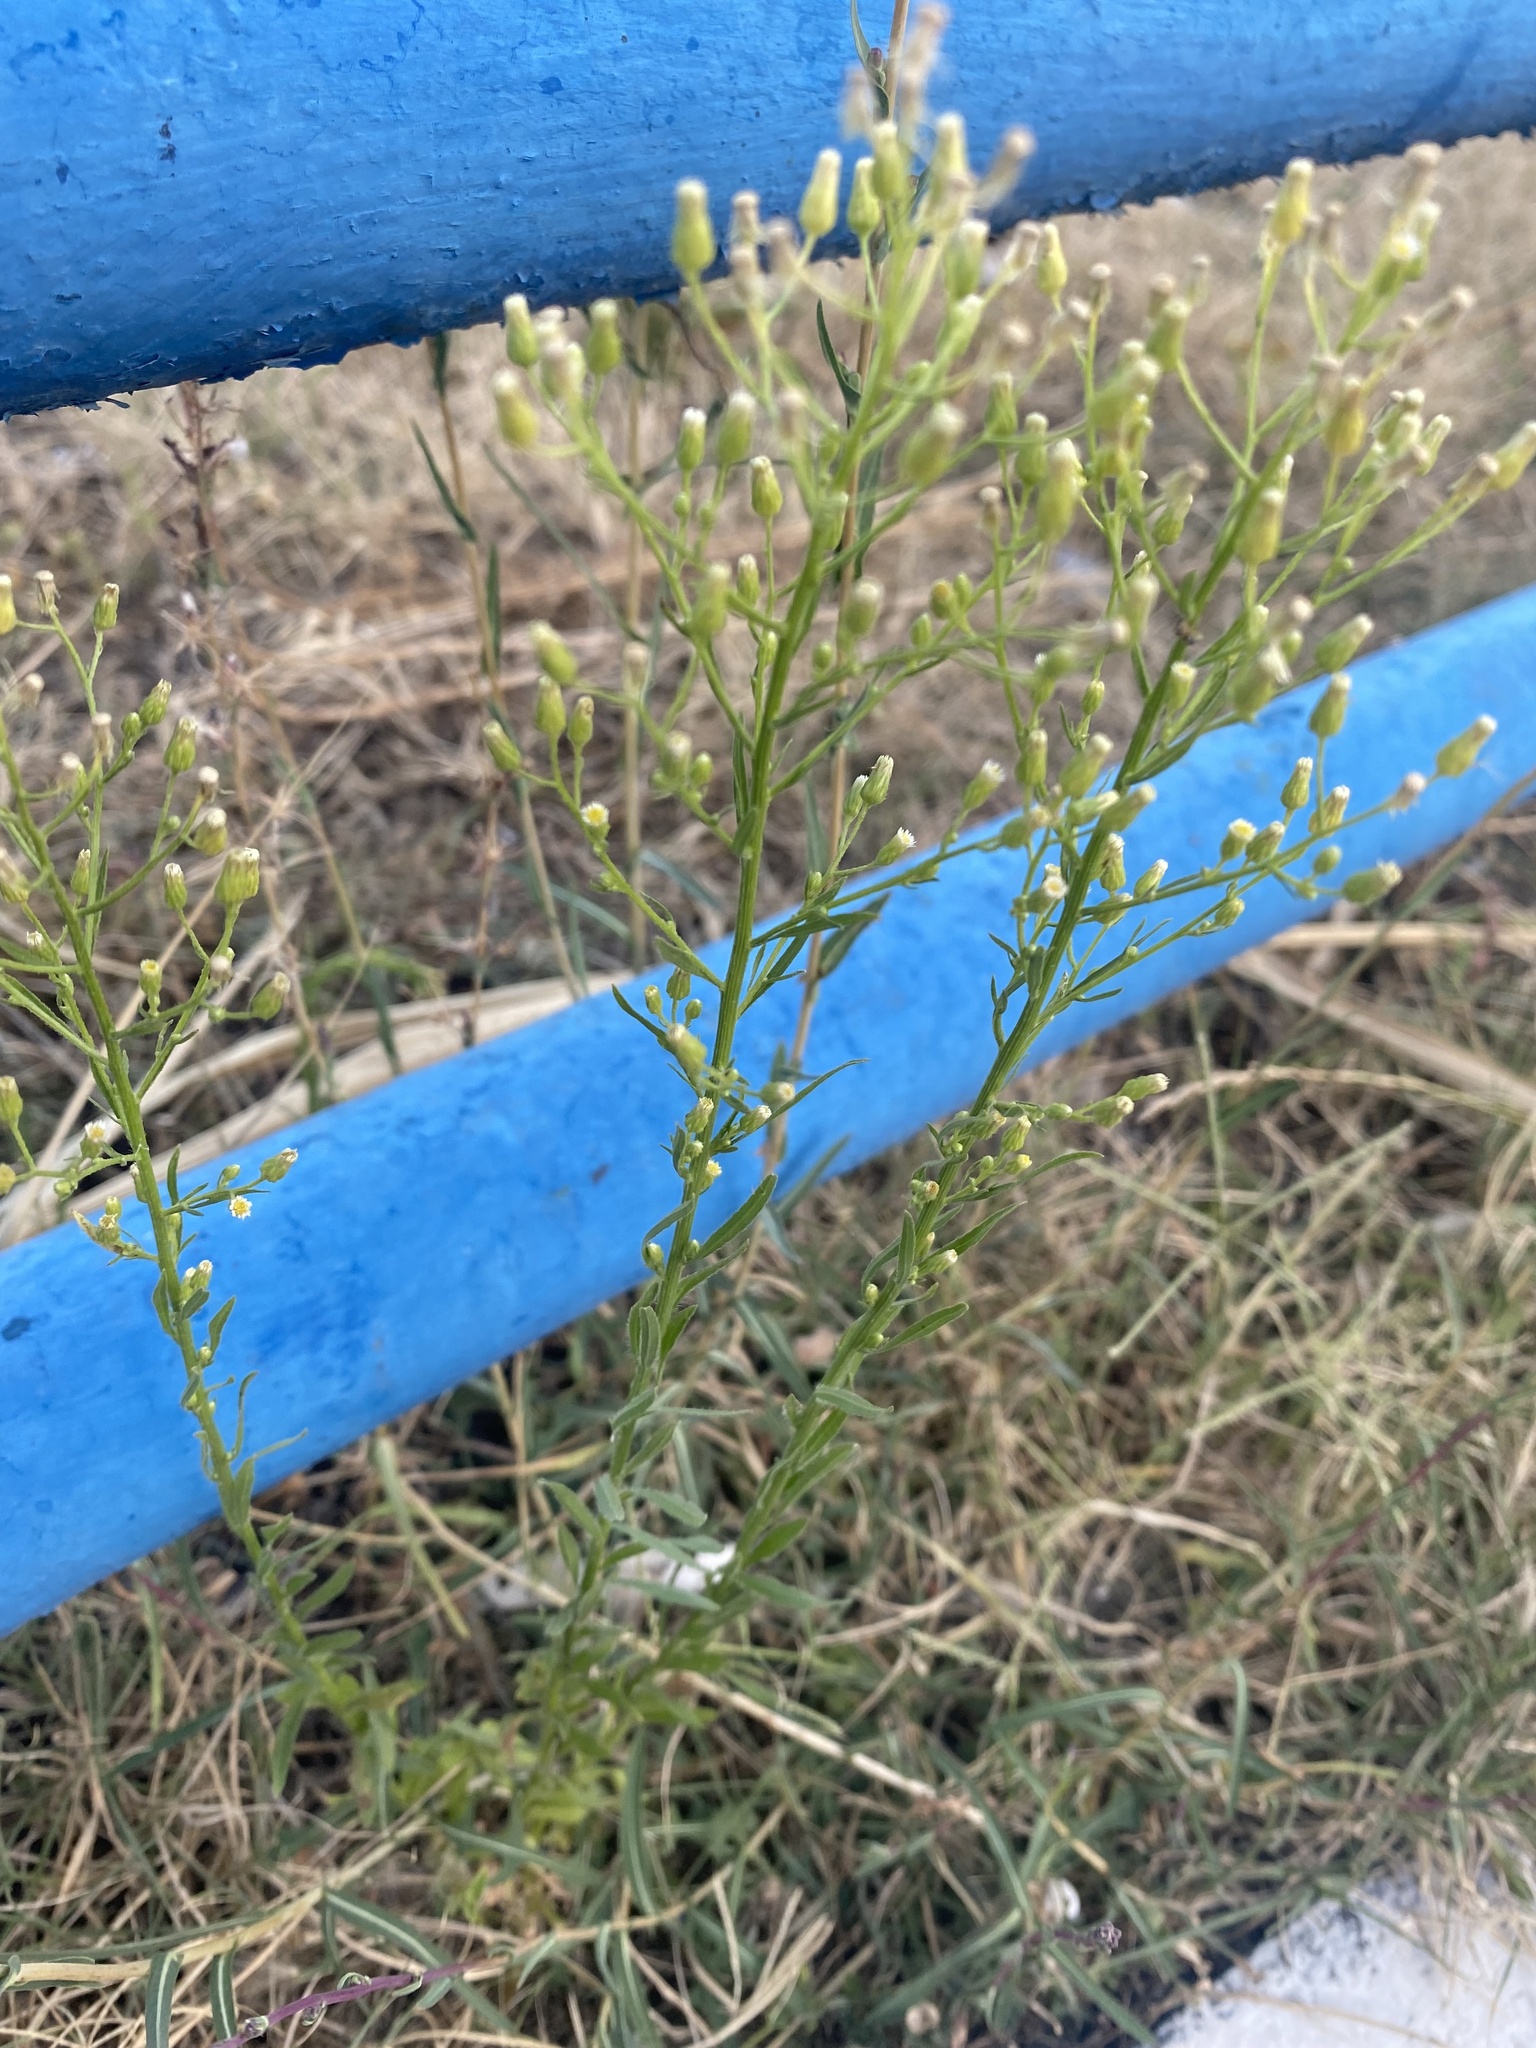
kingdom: Plantae
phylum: Tracheophyta
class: Magnoliopsida
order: Asterales
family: Asteraceae
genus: Erigeron
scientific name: Erigeron canadensis
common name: Canadian fleabane
